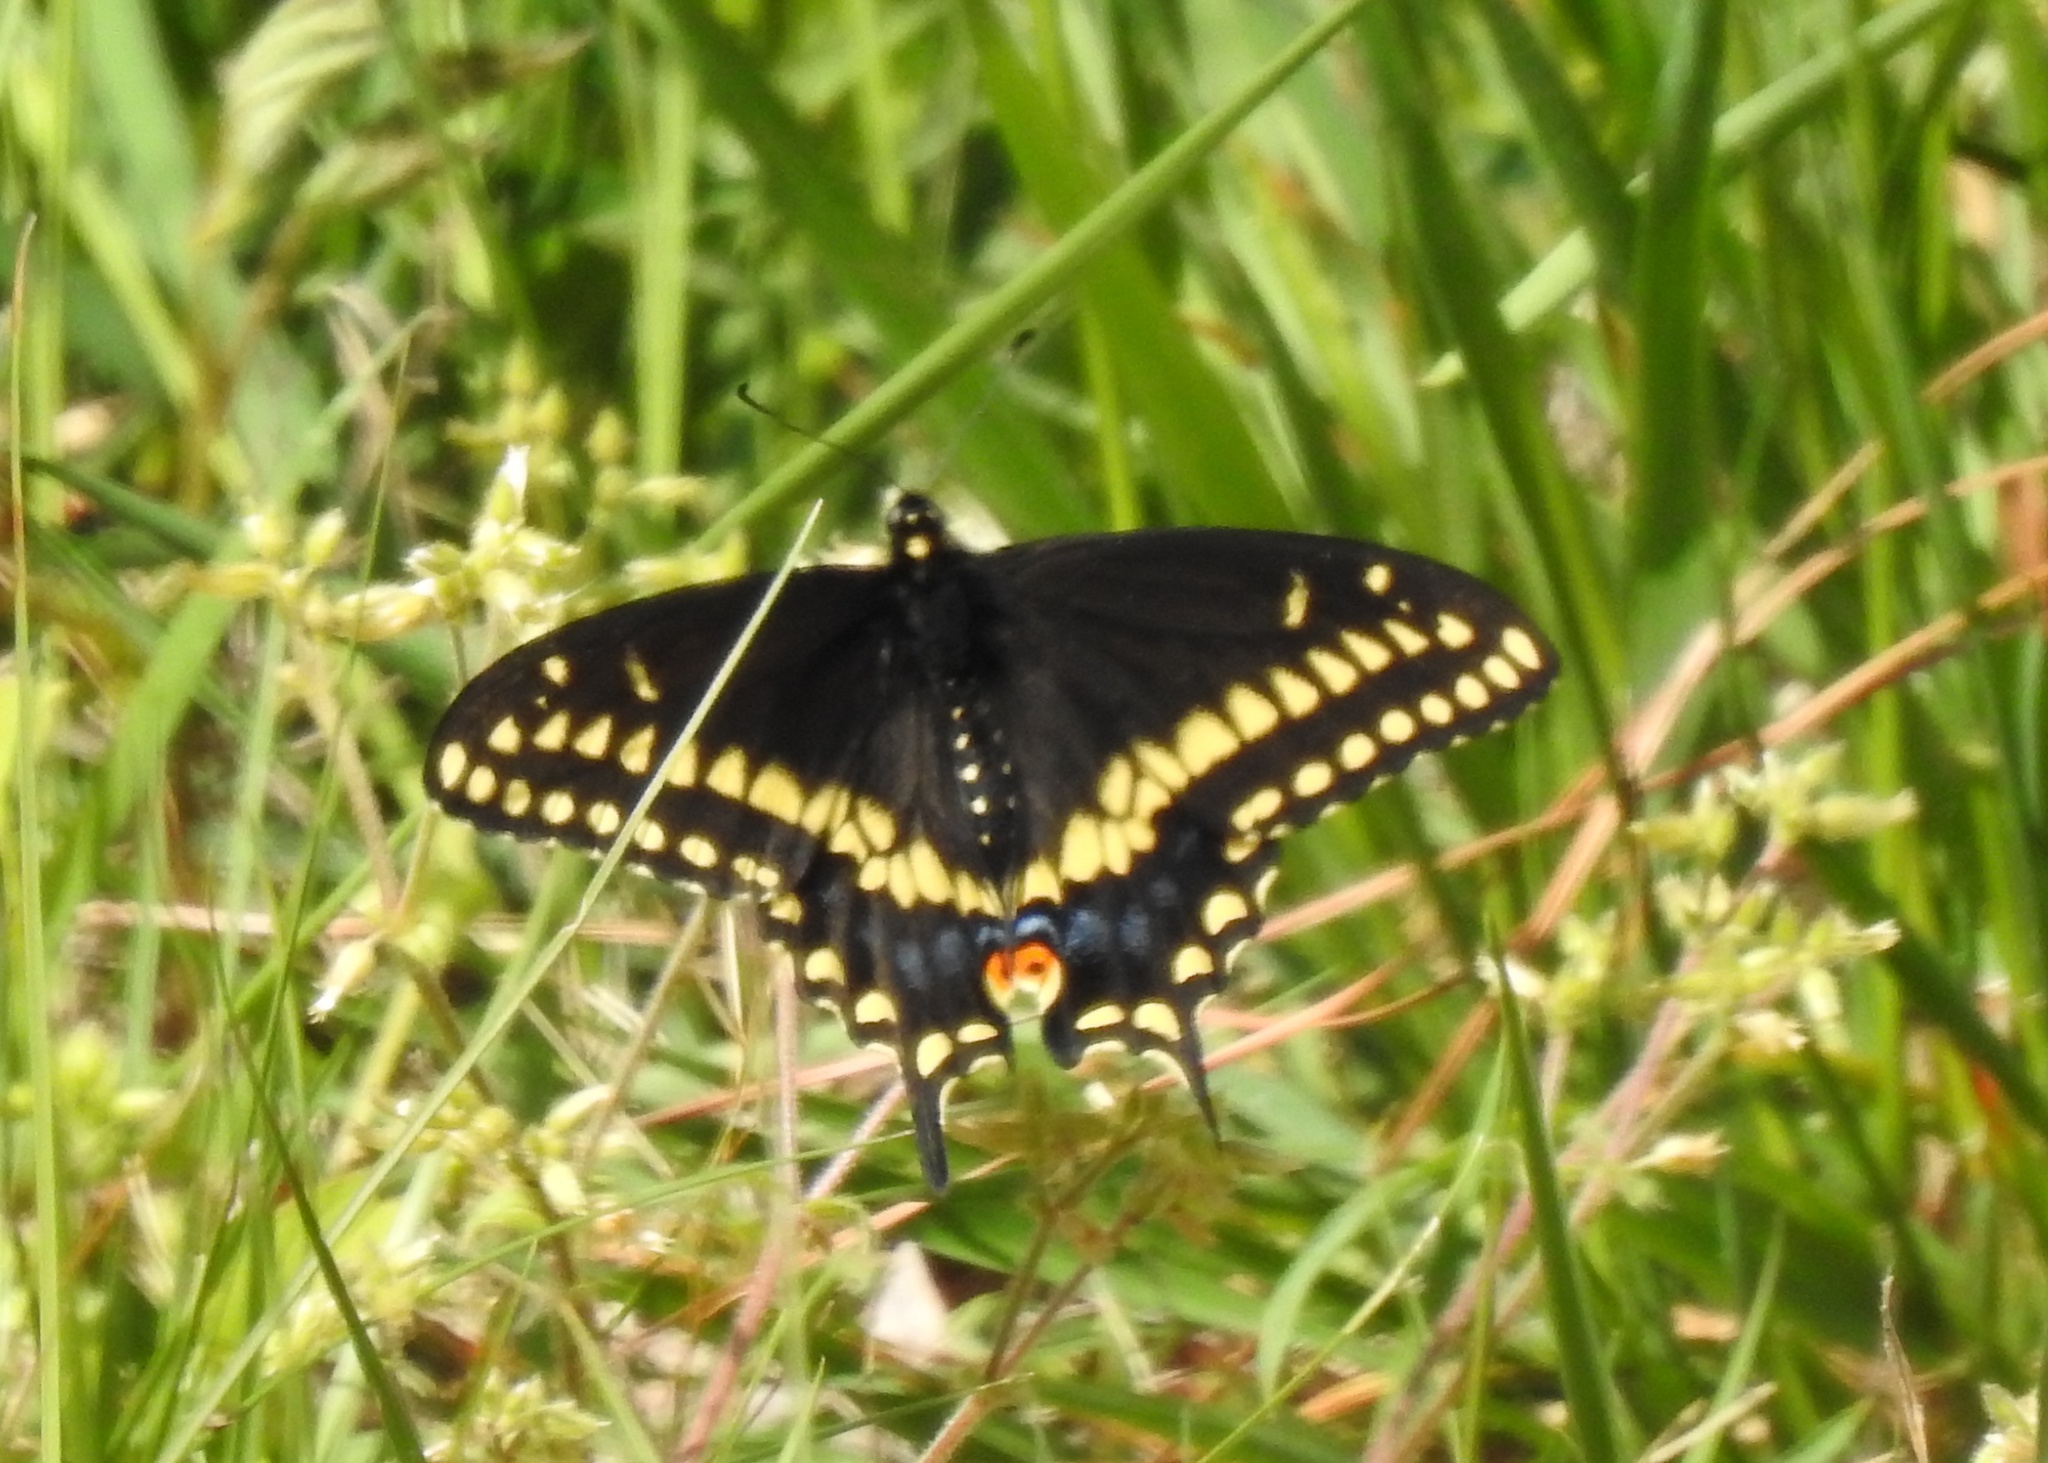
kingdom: Animalia
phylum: Arthropoda
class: Insecta
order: Lepidoptera
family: Papilionidae
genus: Papilio
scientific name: Papilio polyxenes
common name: Black swallowtail
